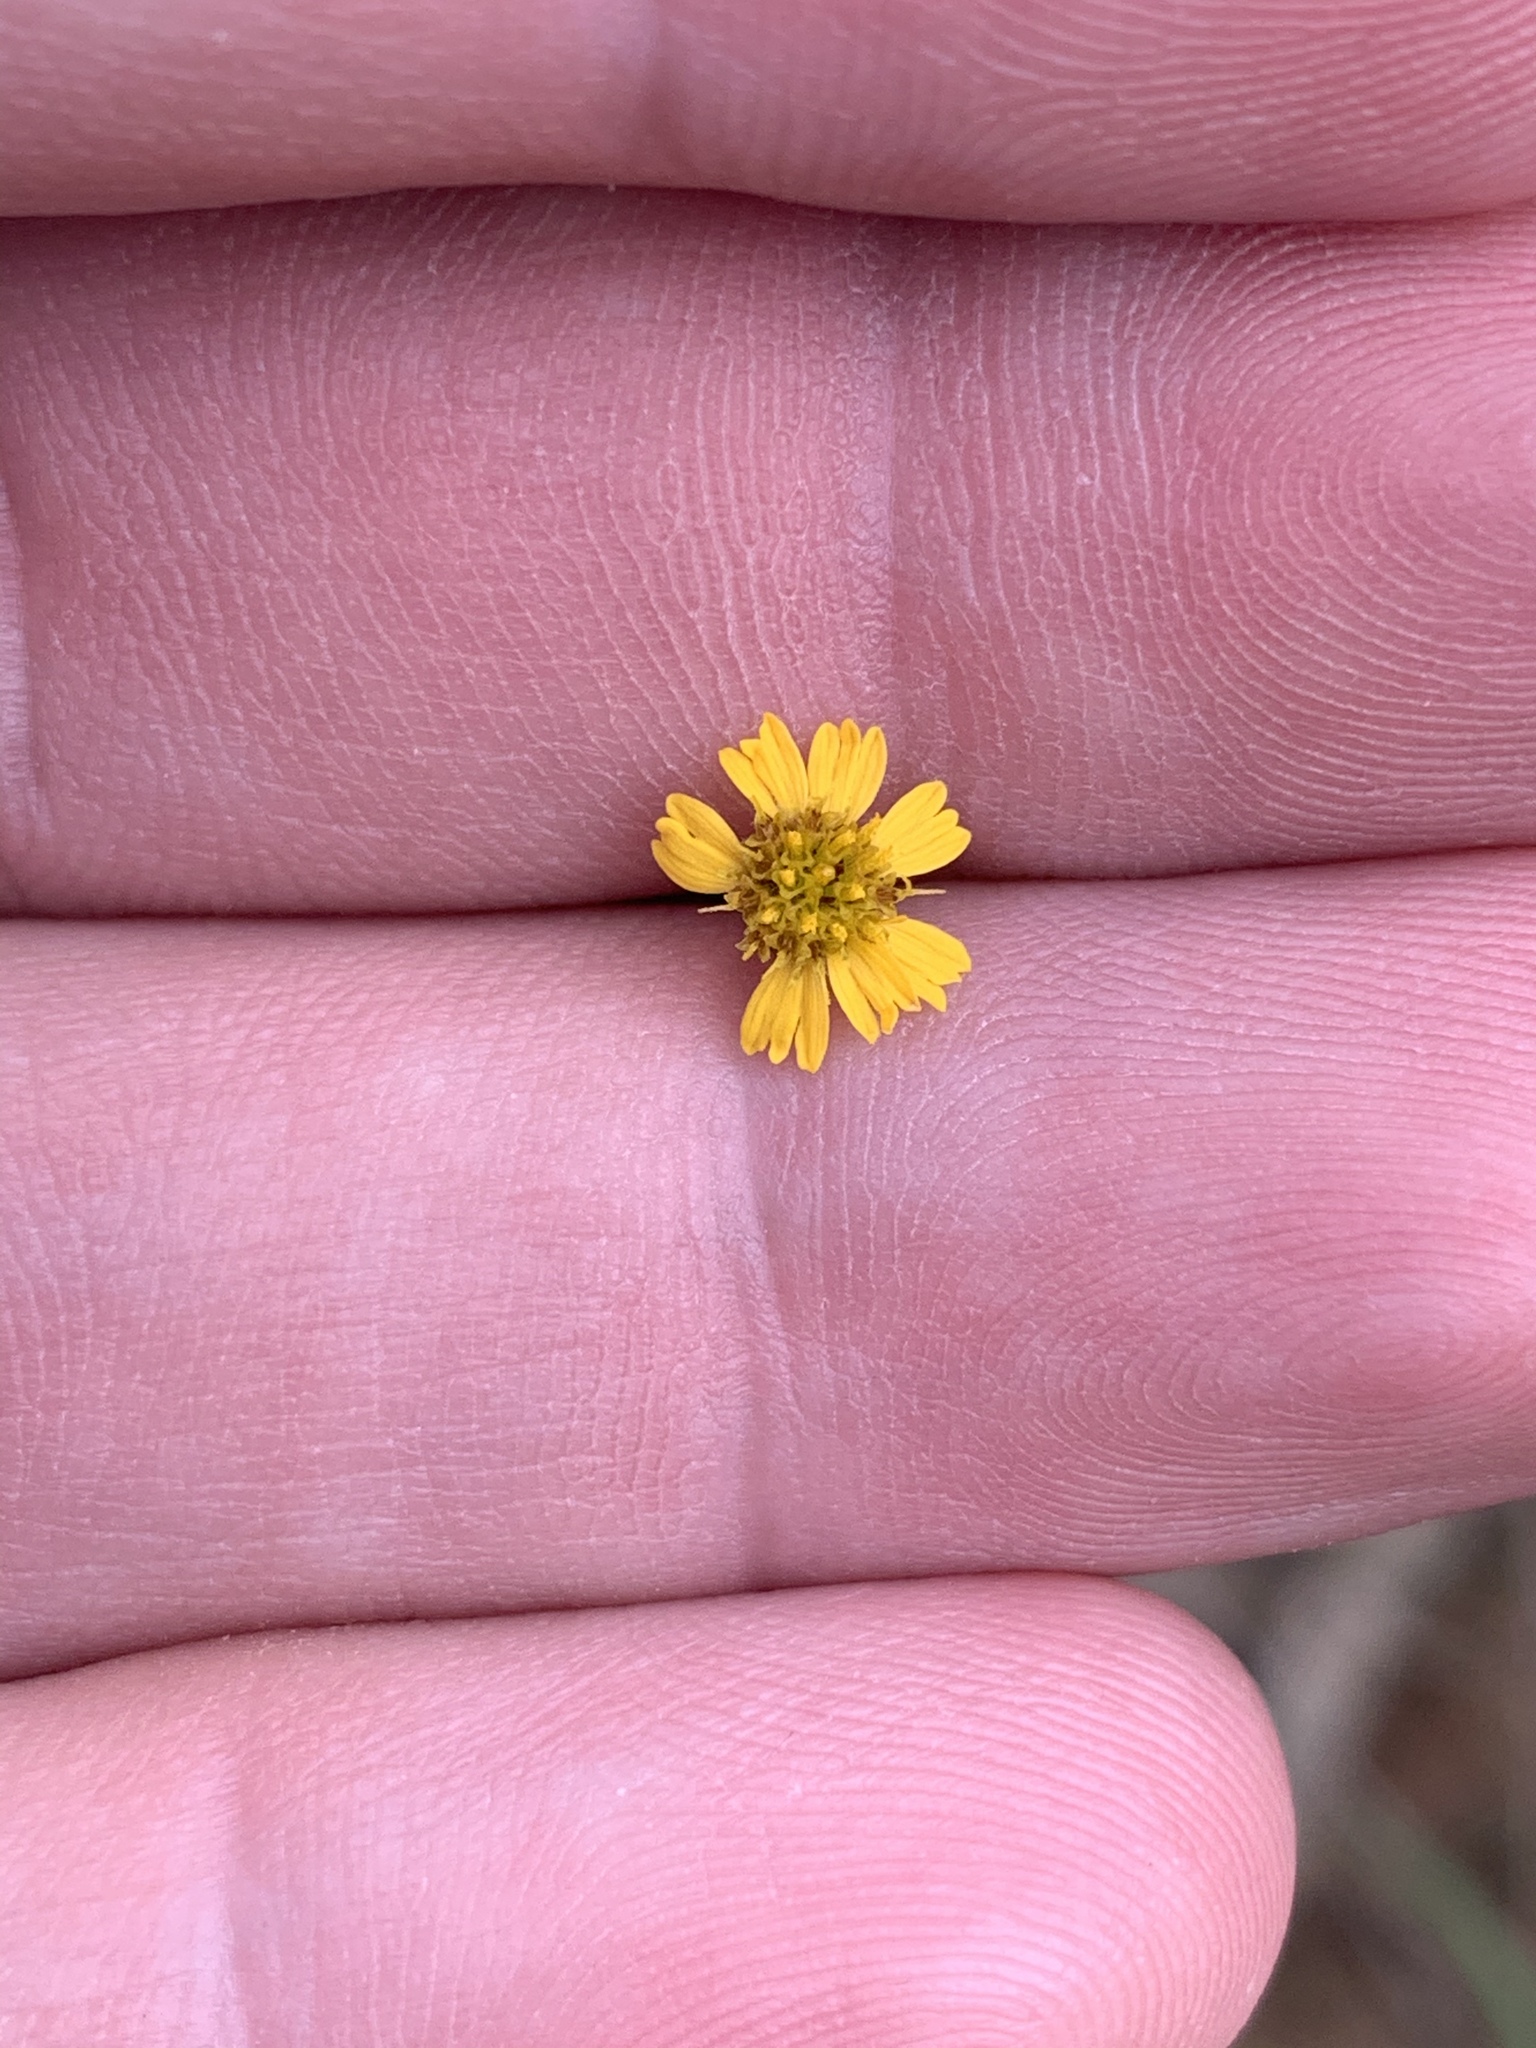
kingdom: Plantae
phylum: Tracheophyta
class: Magnoliopsida
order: Asterales
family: Asteraceae
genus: Glossocardia
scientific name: Glossocardia bidens
